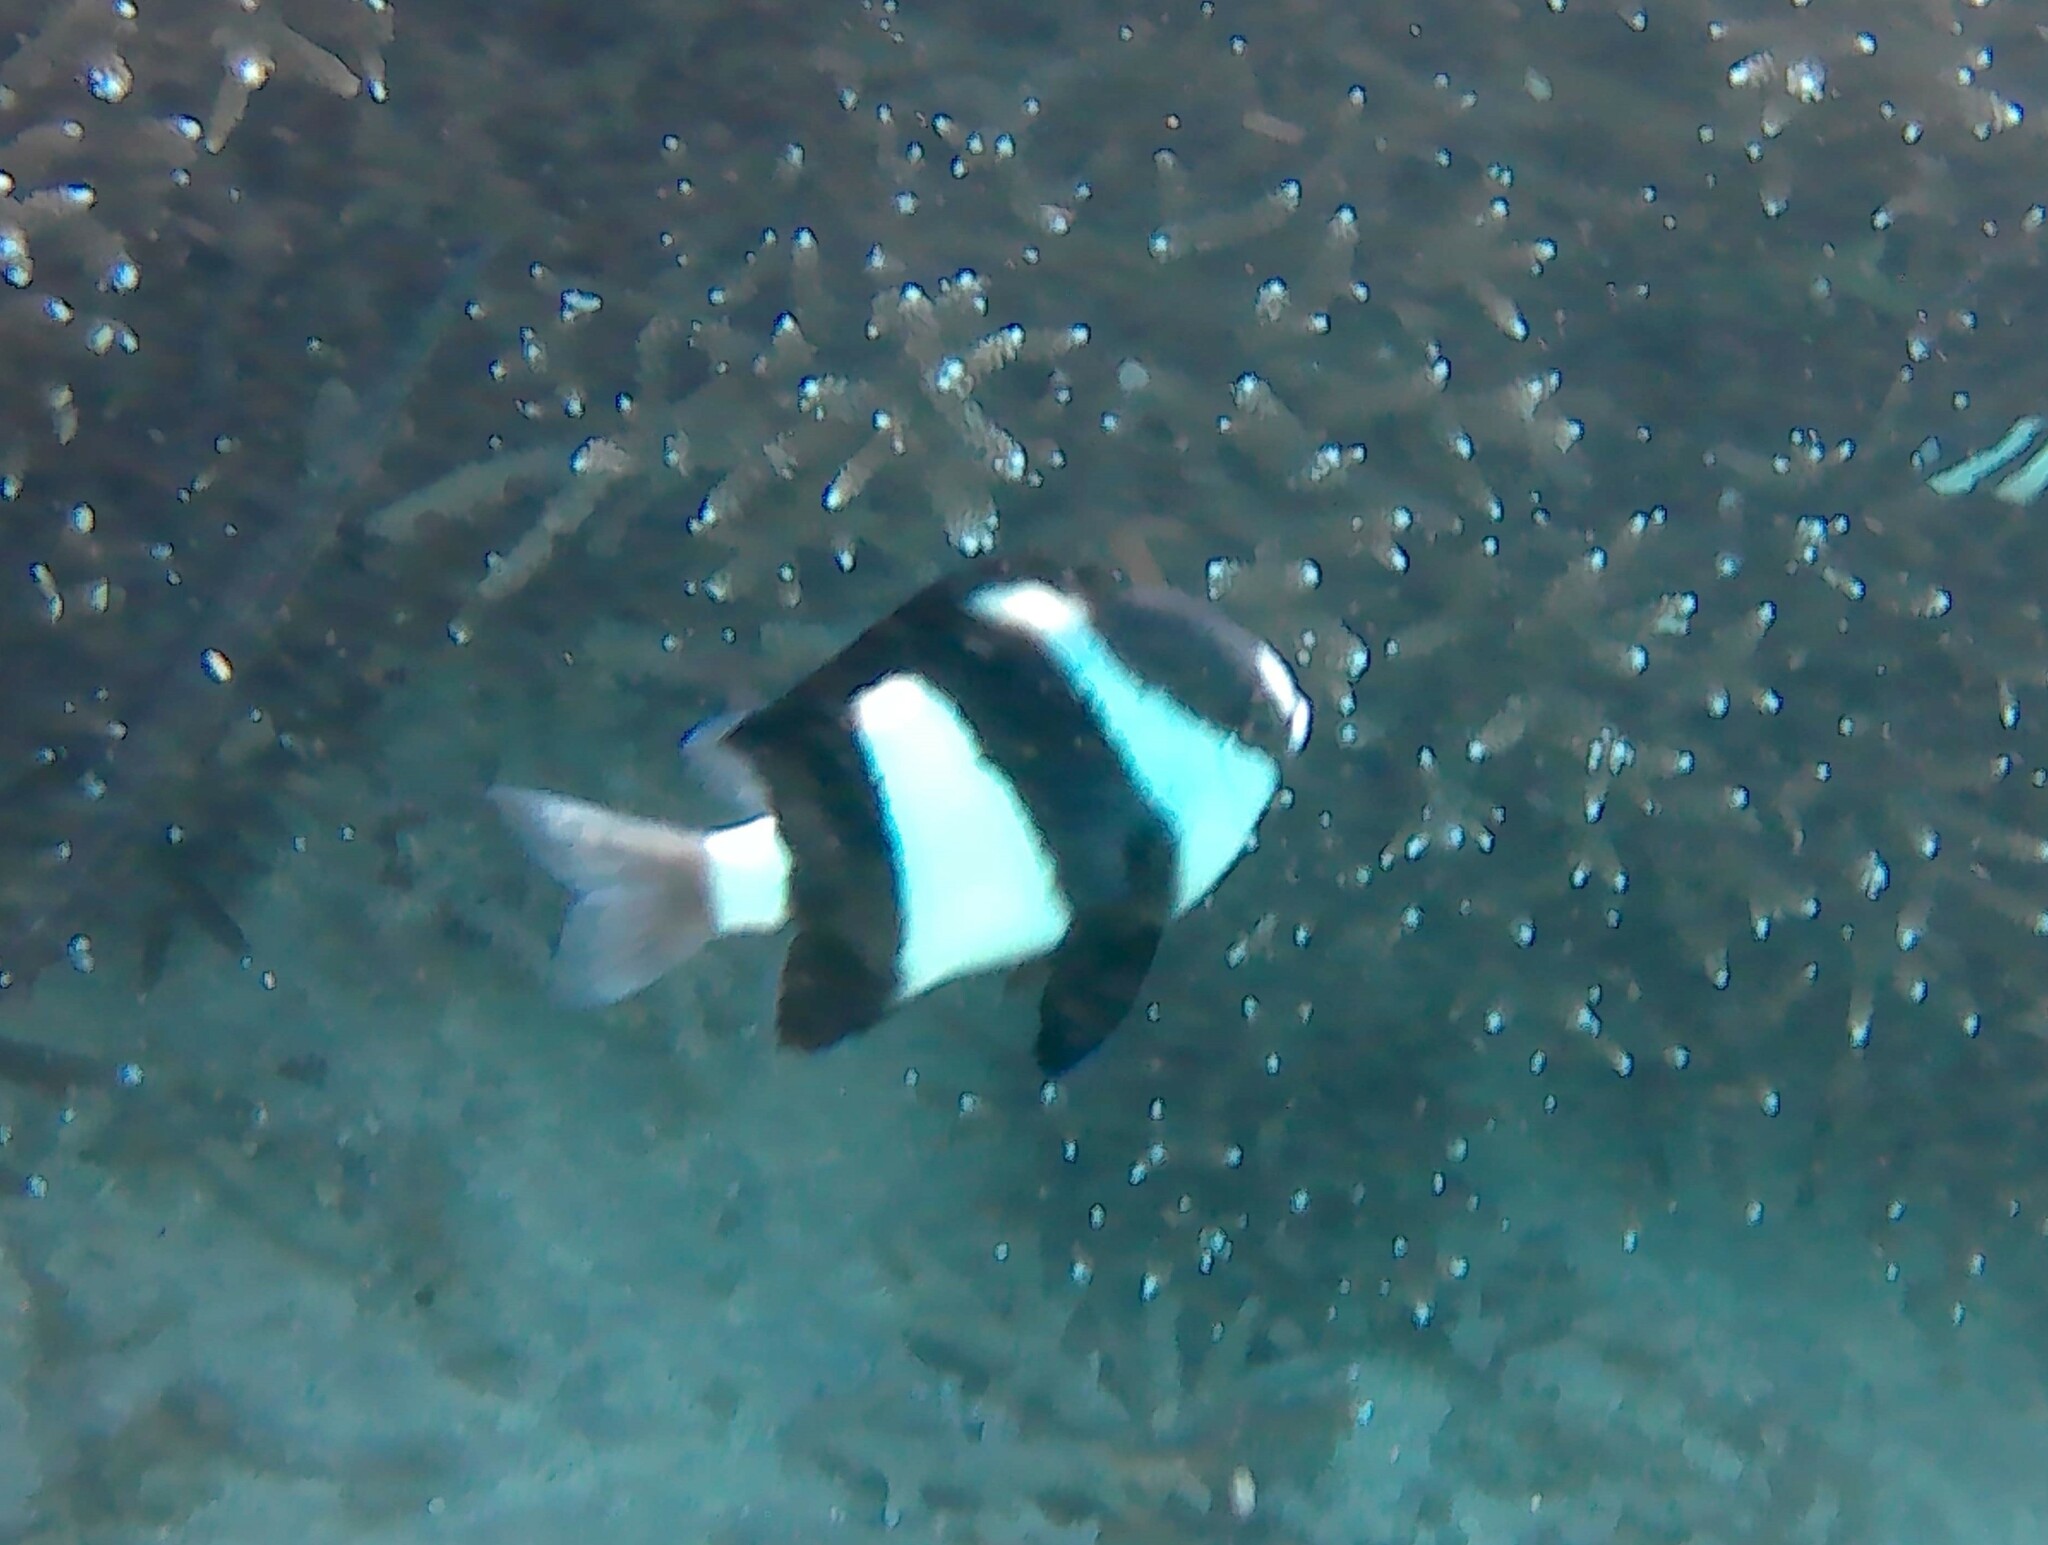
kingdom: Animalia
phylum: Chordata
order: Perciformes
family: Pomacentridae
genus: Dascyllus
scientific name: Dascyllus abudafur
